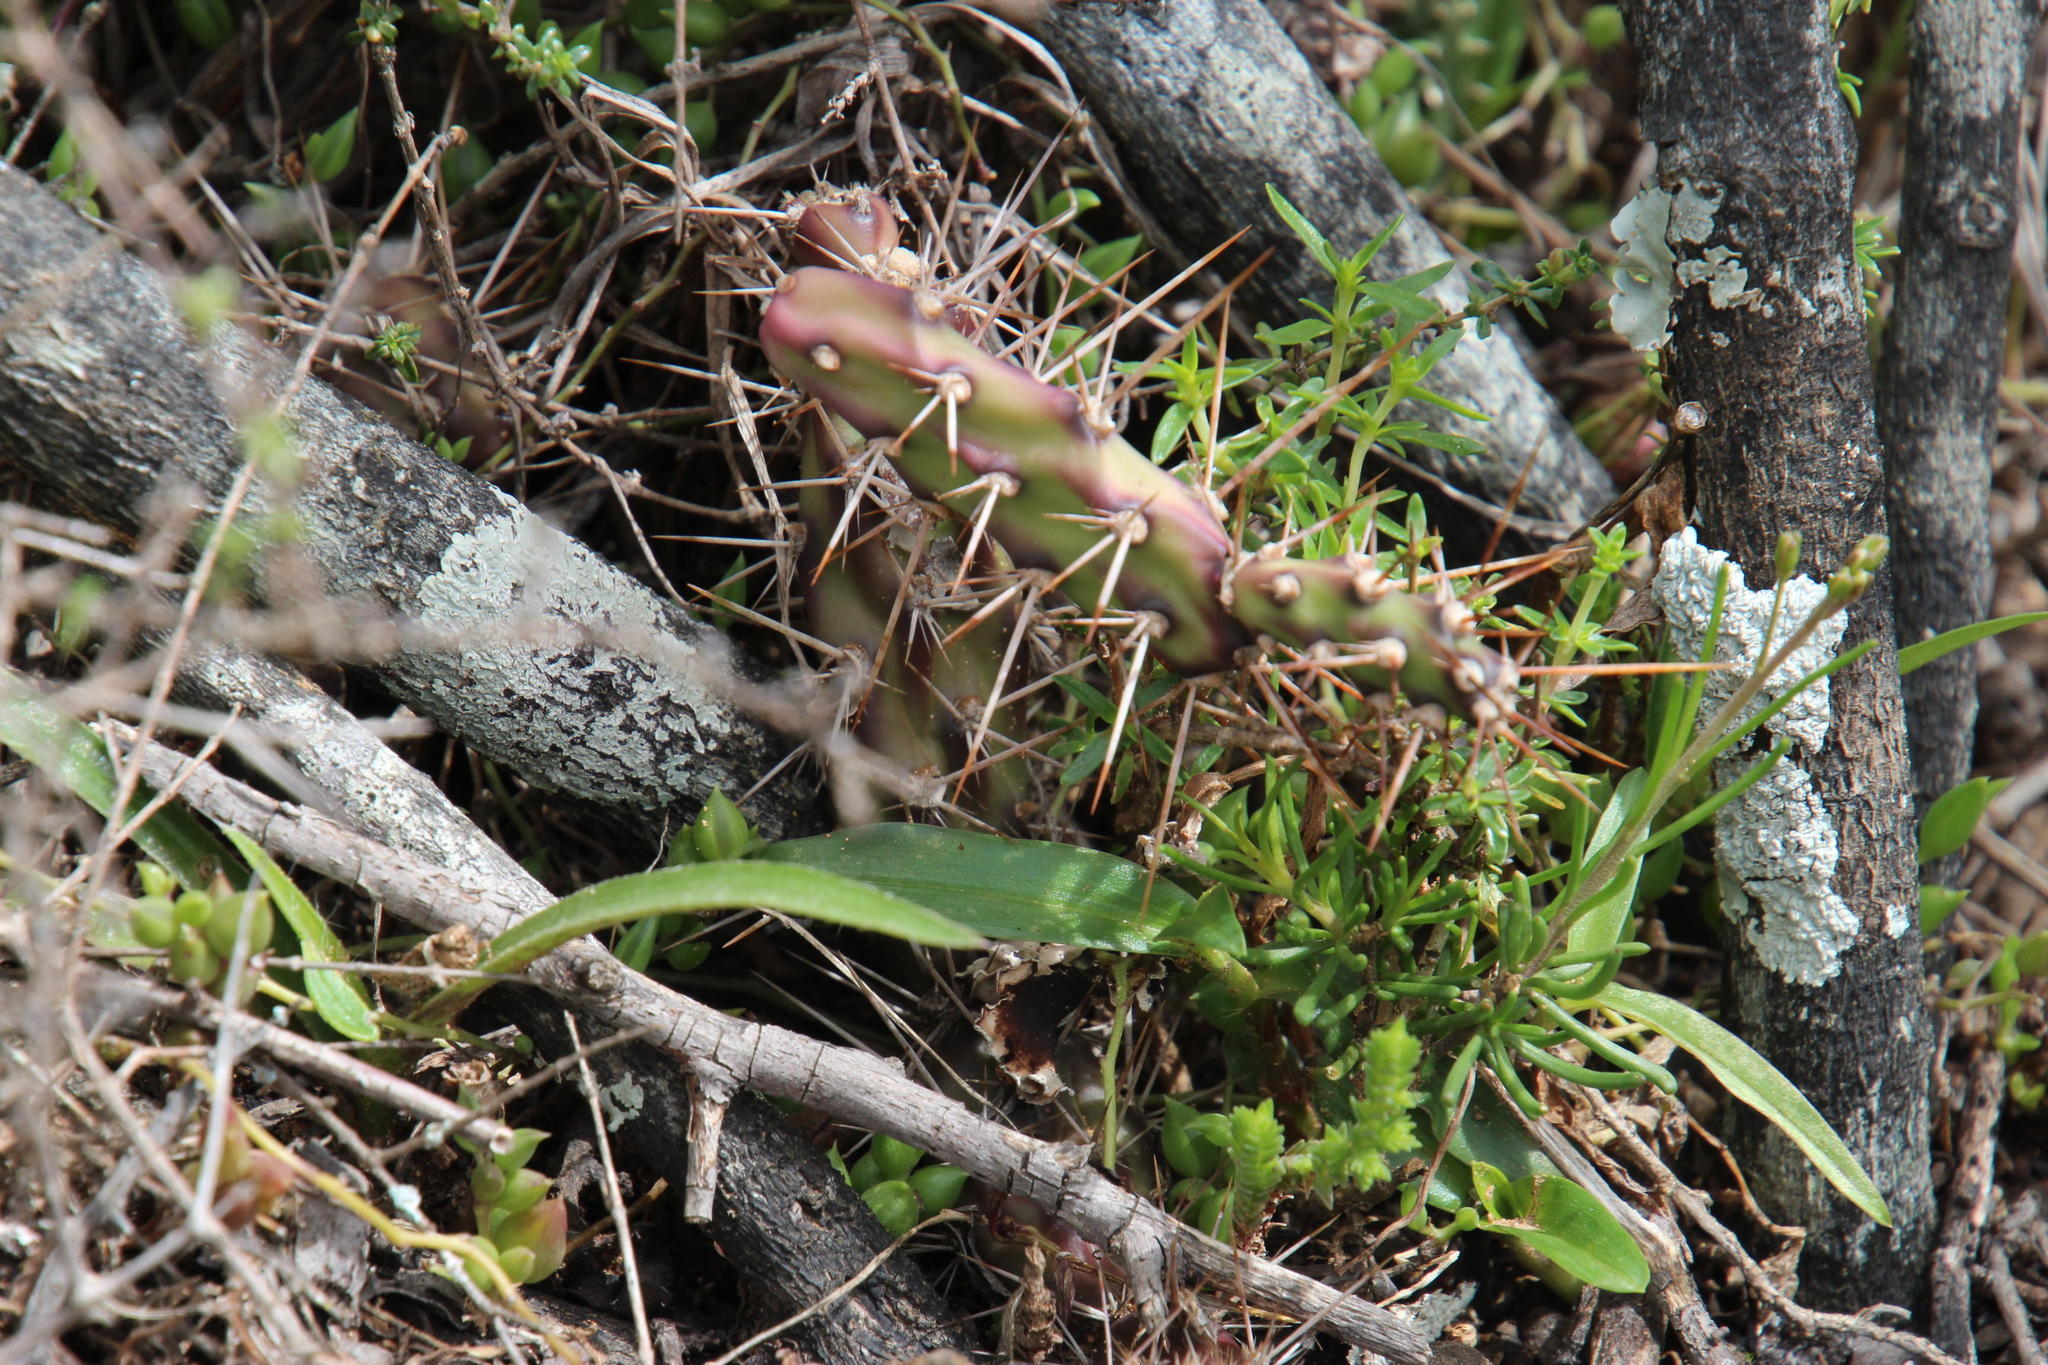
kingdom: Plantae
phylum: Tracheophyta
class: Magnoliopsida
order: Caryophyllales
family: Cactaceae
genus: Opuntia
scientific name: Opuntia aurantiaca
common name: Jointed pricklypear
